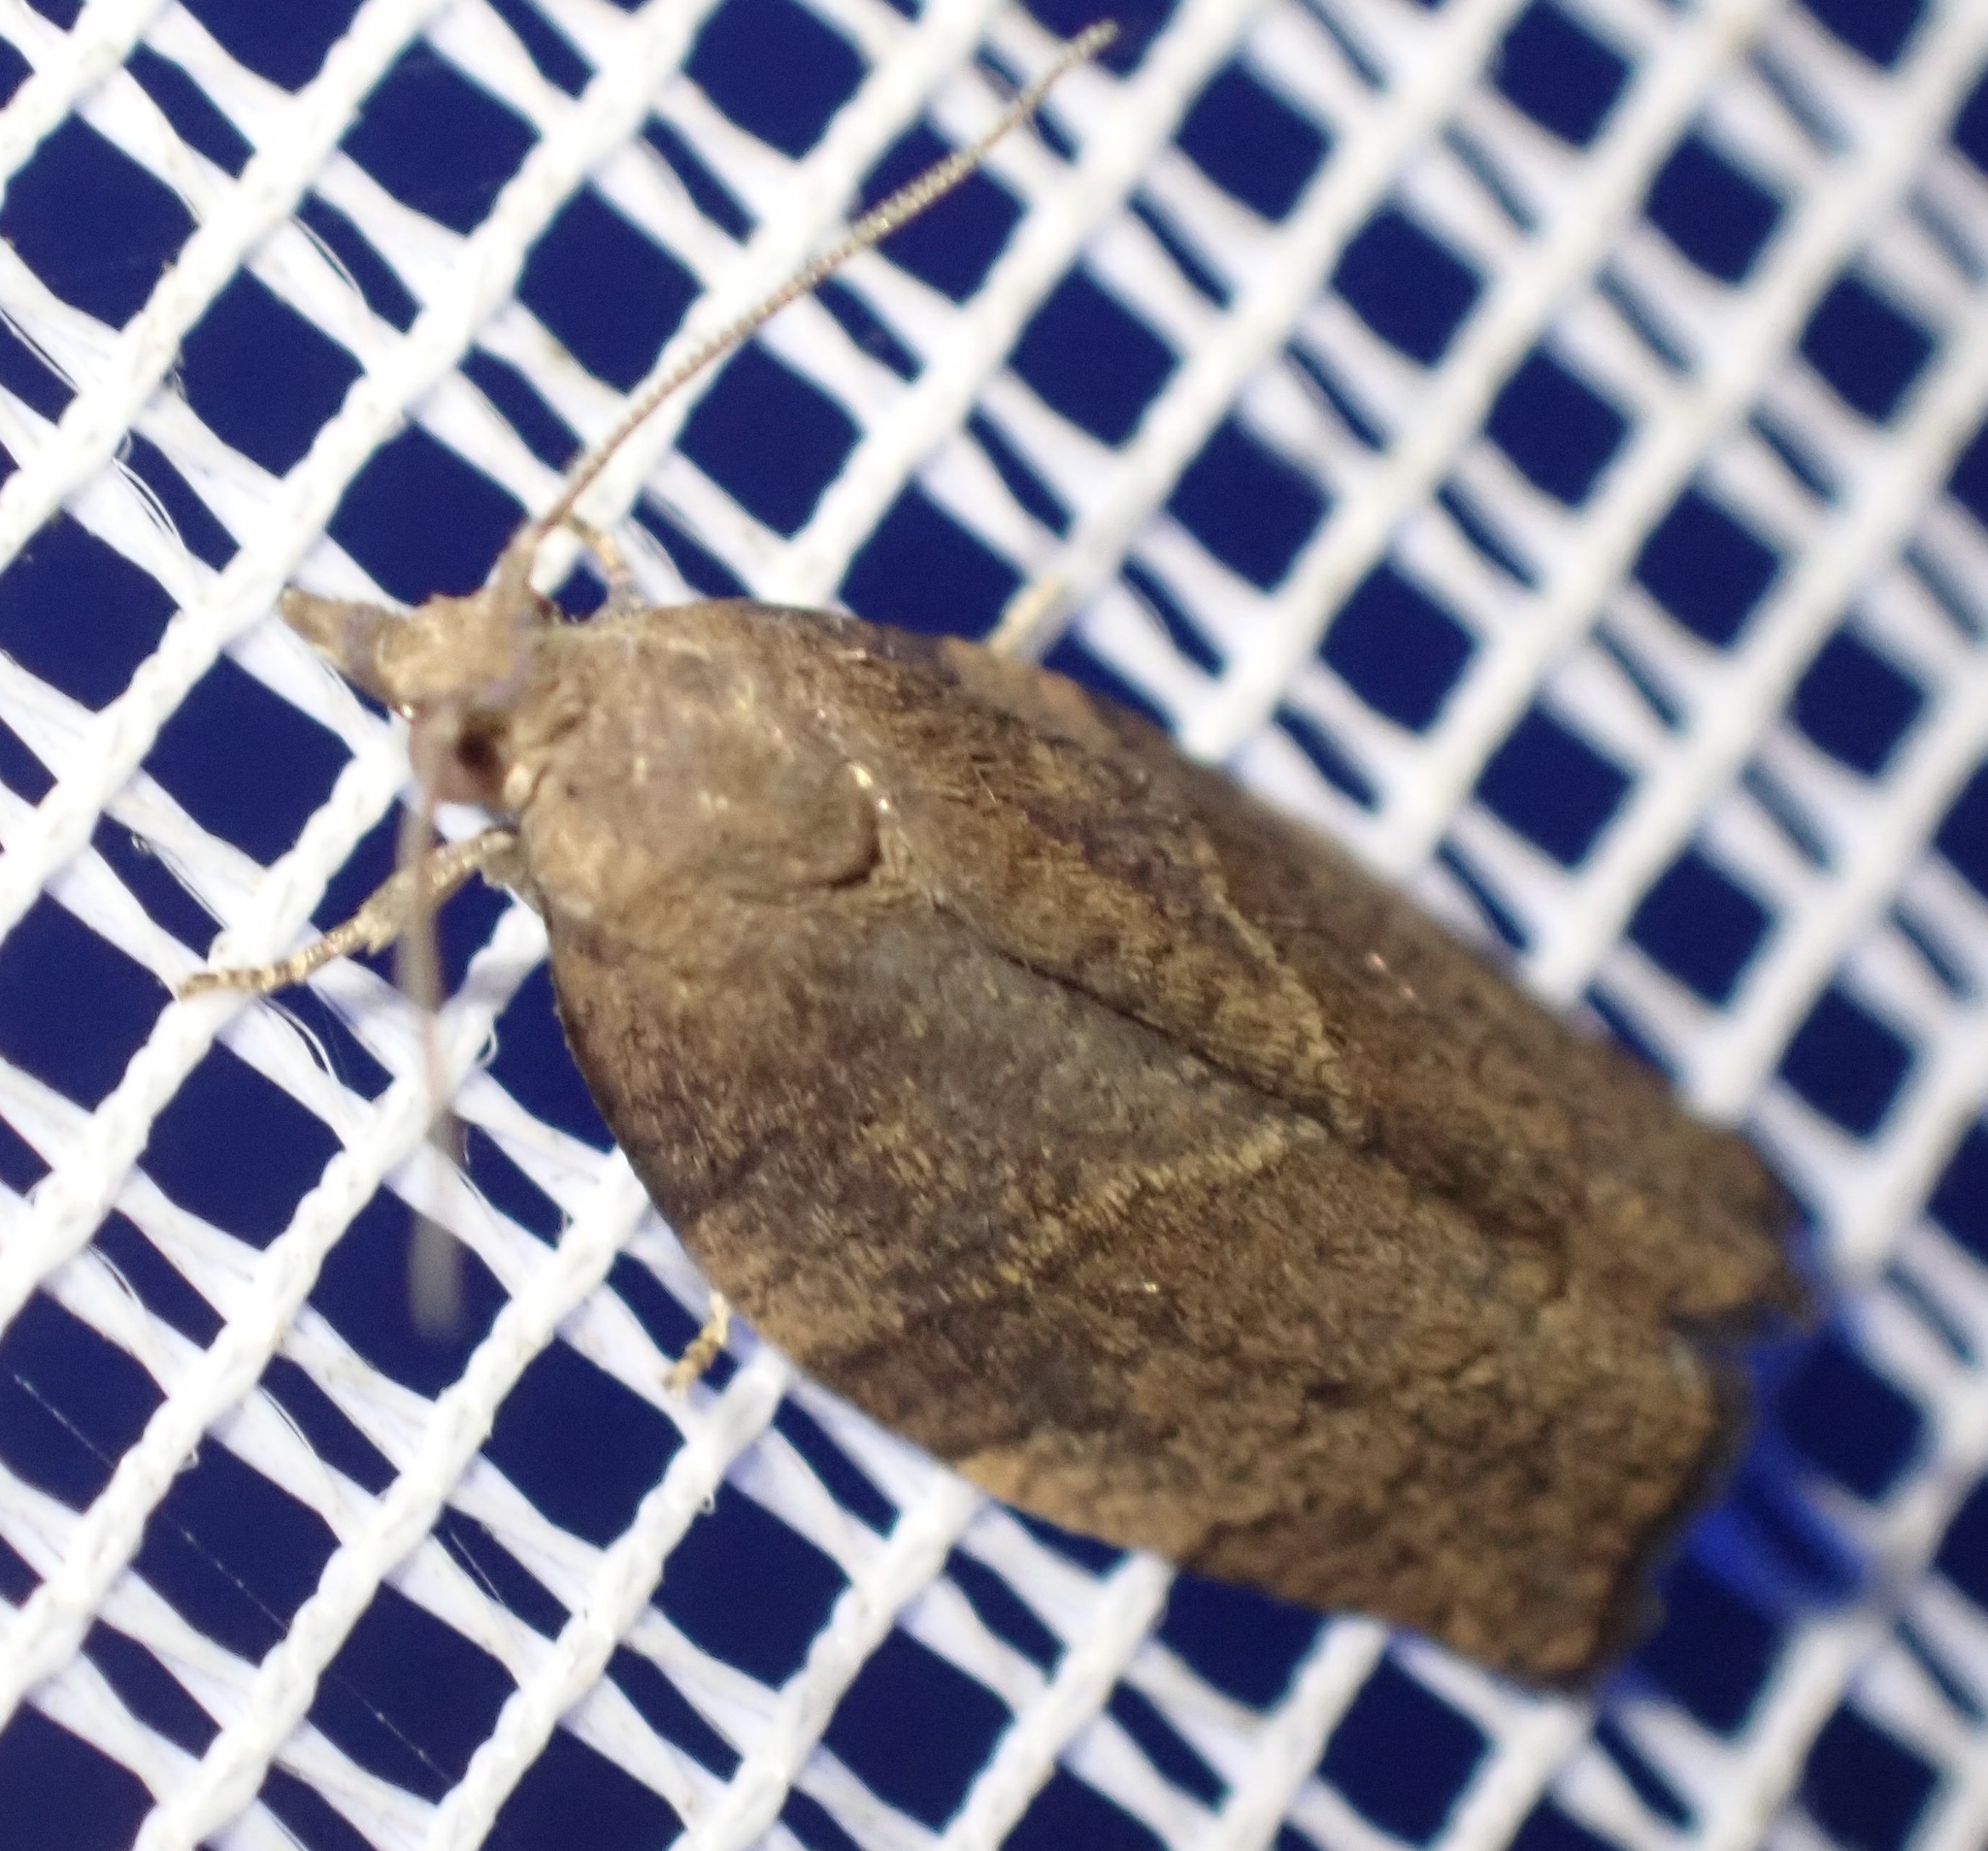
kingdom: Animalia
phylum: Arthropoda
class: Insecta
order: Lepidoptera
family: Tortricidae
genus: Pandemis
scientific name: Pandemis heparana
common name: Dark fruit-tree tortrix
